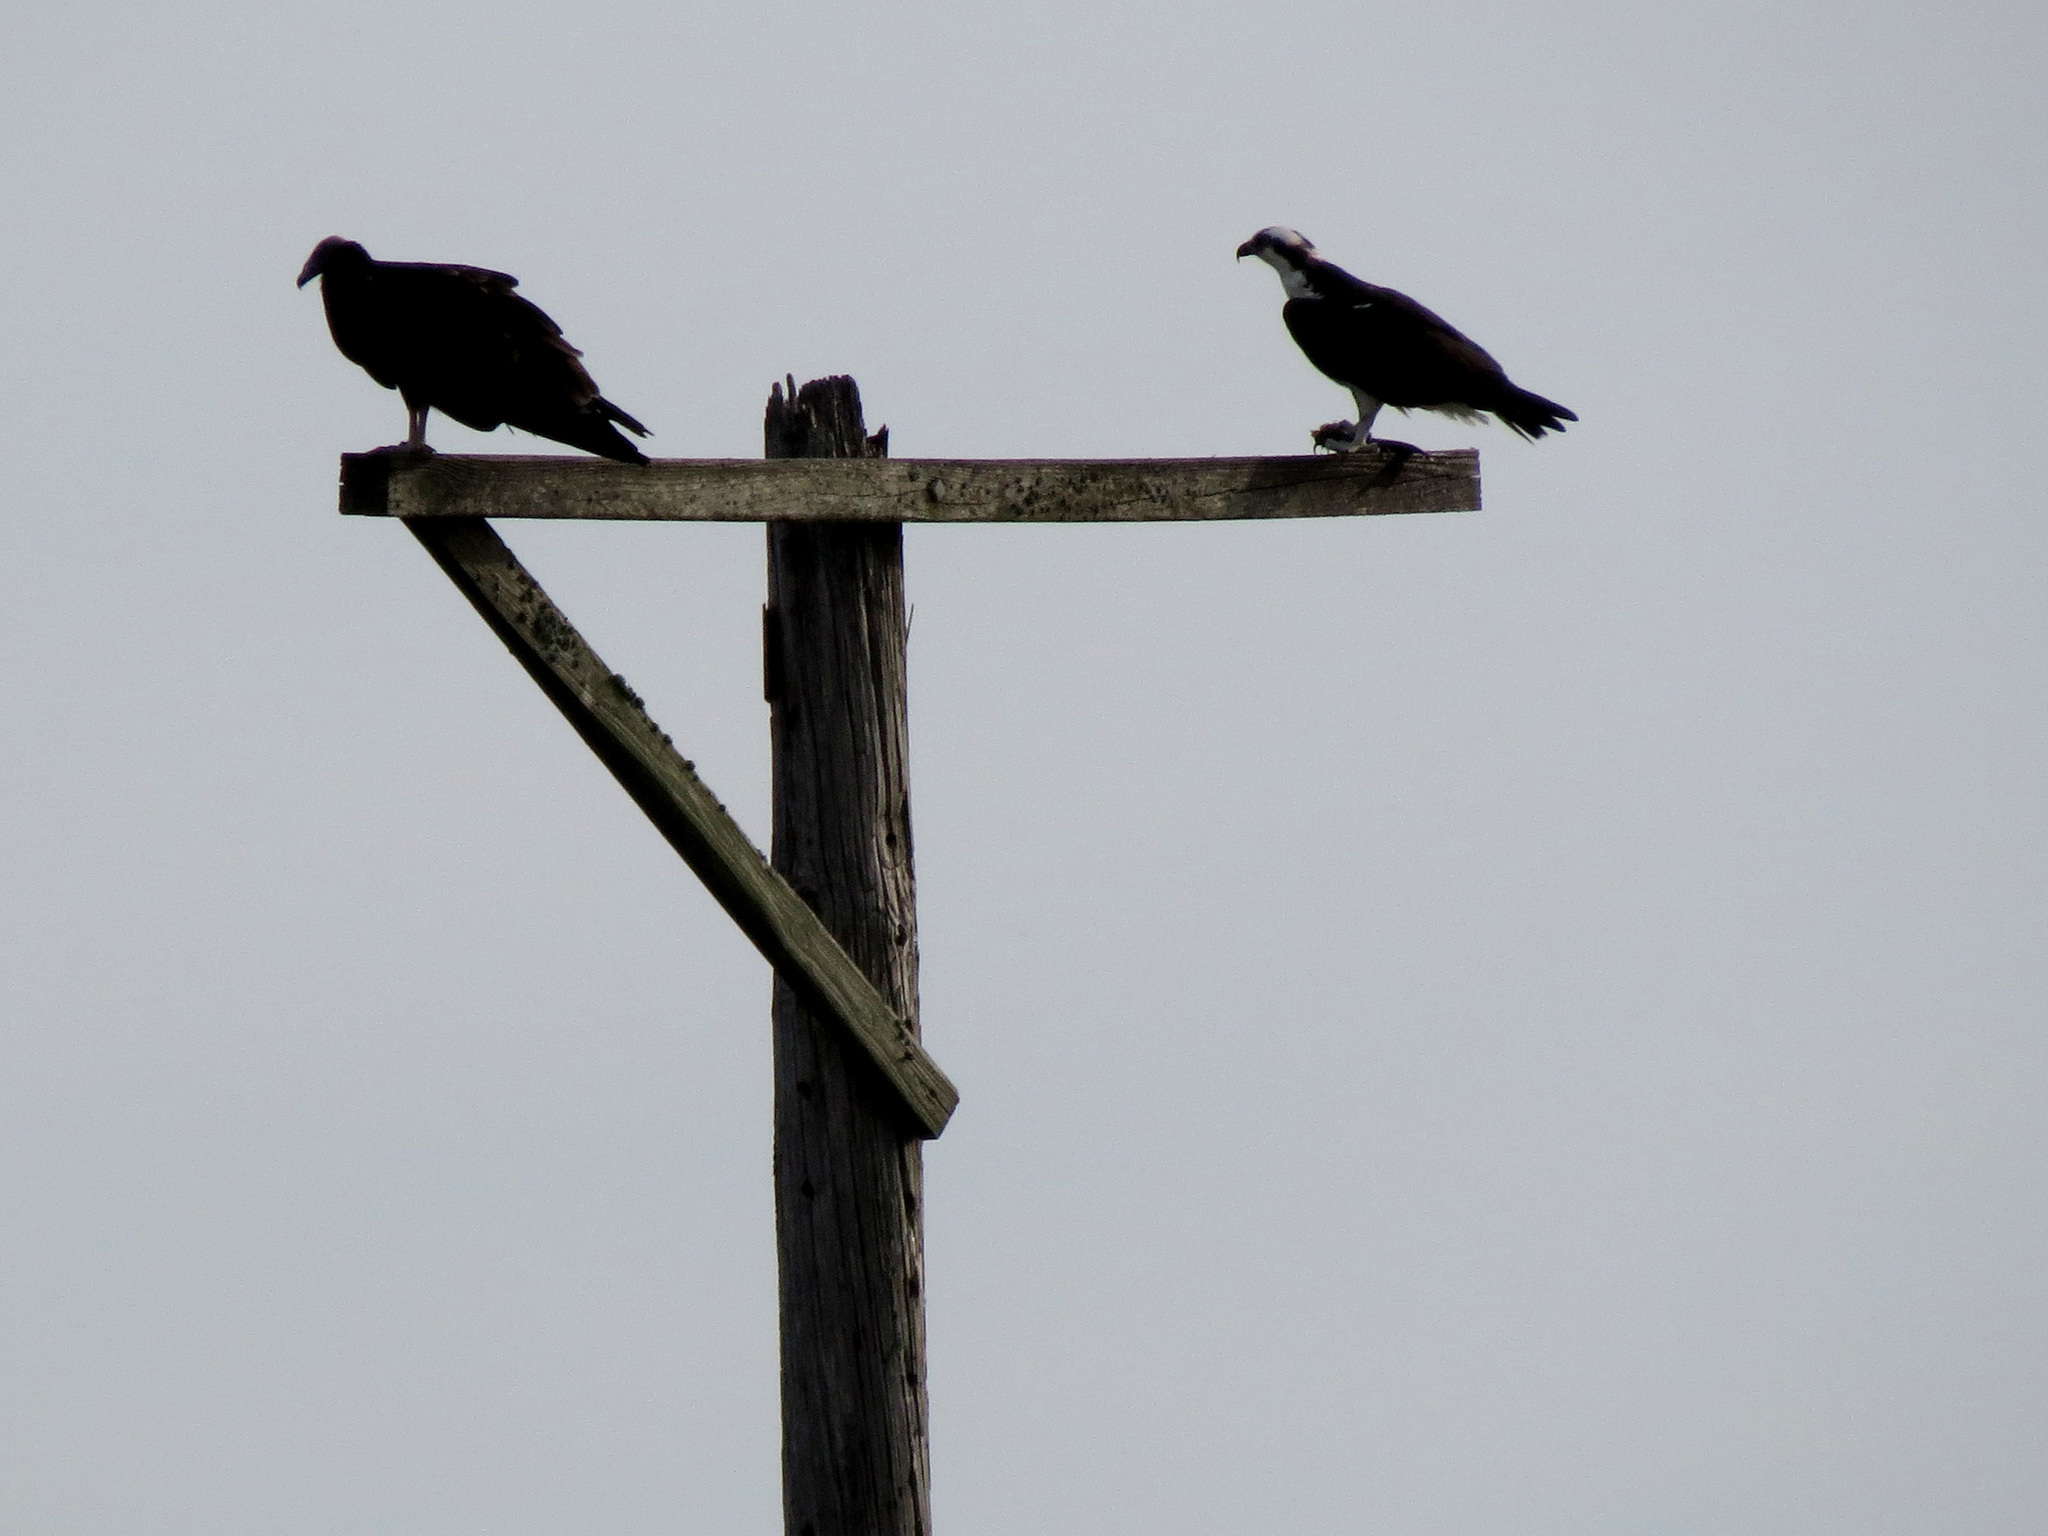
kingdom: Animalia
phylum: Chordata
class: Aves
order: Accipitriformes
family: Cathartidae
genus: Cathartes
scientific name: Cathartes aura
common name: Turkey vulture
